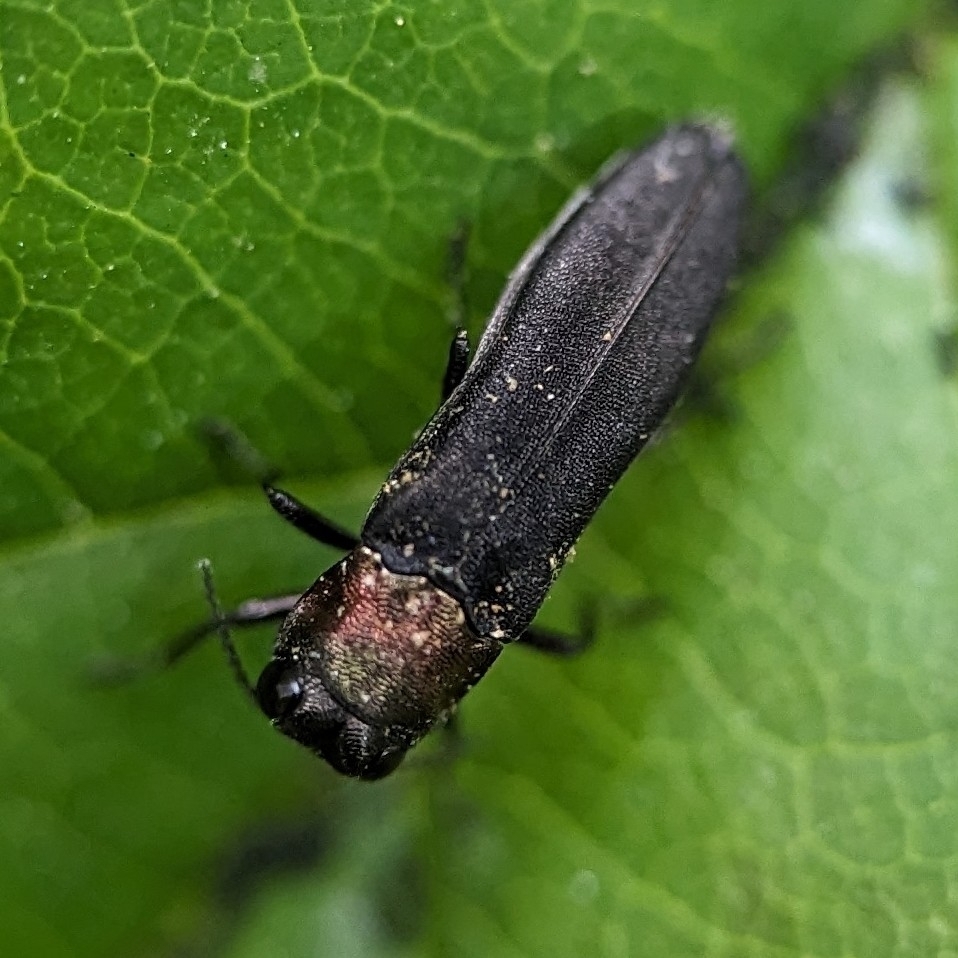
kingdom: Animalia
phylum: Arthropoda
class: Insecta
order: Coleoptera
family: Buprestidae
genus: Agrilus
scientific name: Agrilus ruficollis
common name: Red-necked cane borer beetle
